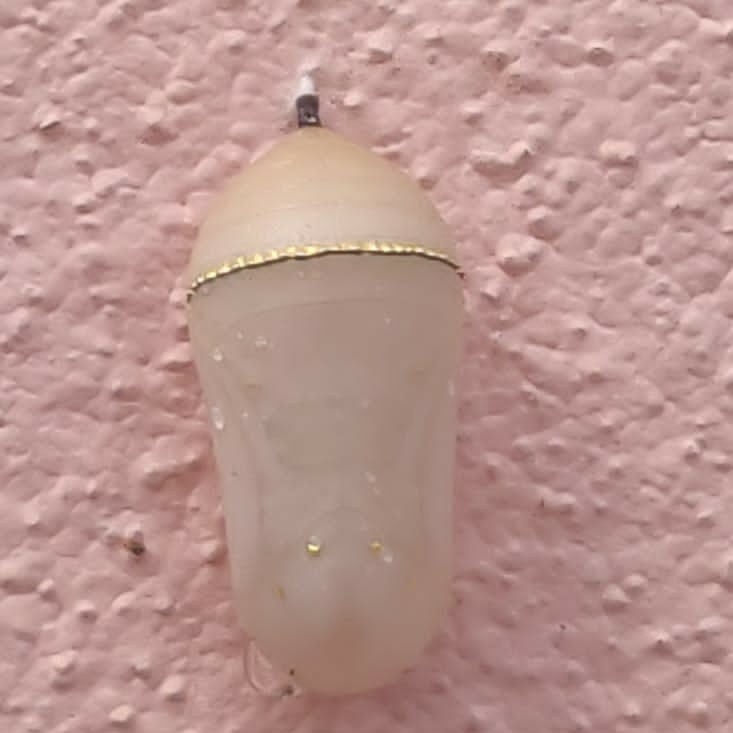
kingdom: Animalia
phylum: Arthropoda
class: Insecta
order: Lepidoptera
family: Nymphalidae
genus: Danaus
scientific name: Danaus chrysippus
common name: Plain tiger
